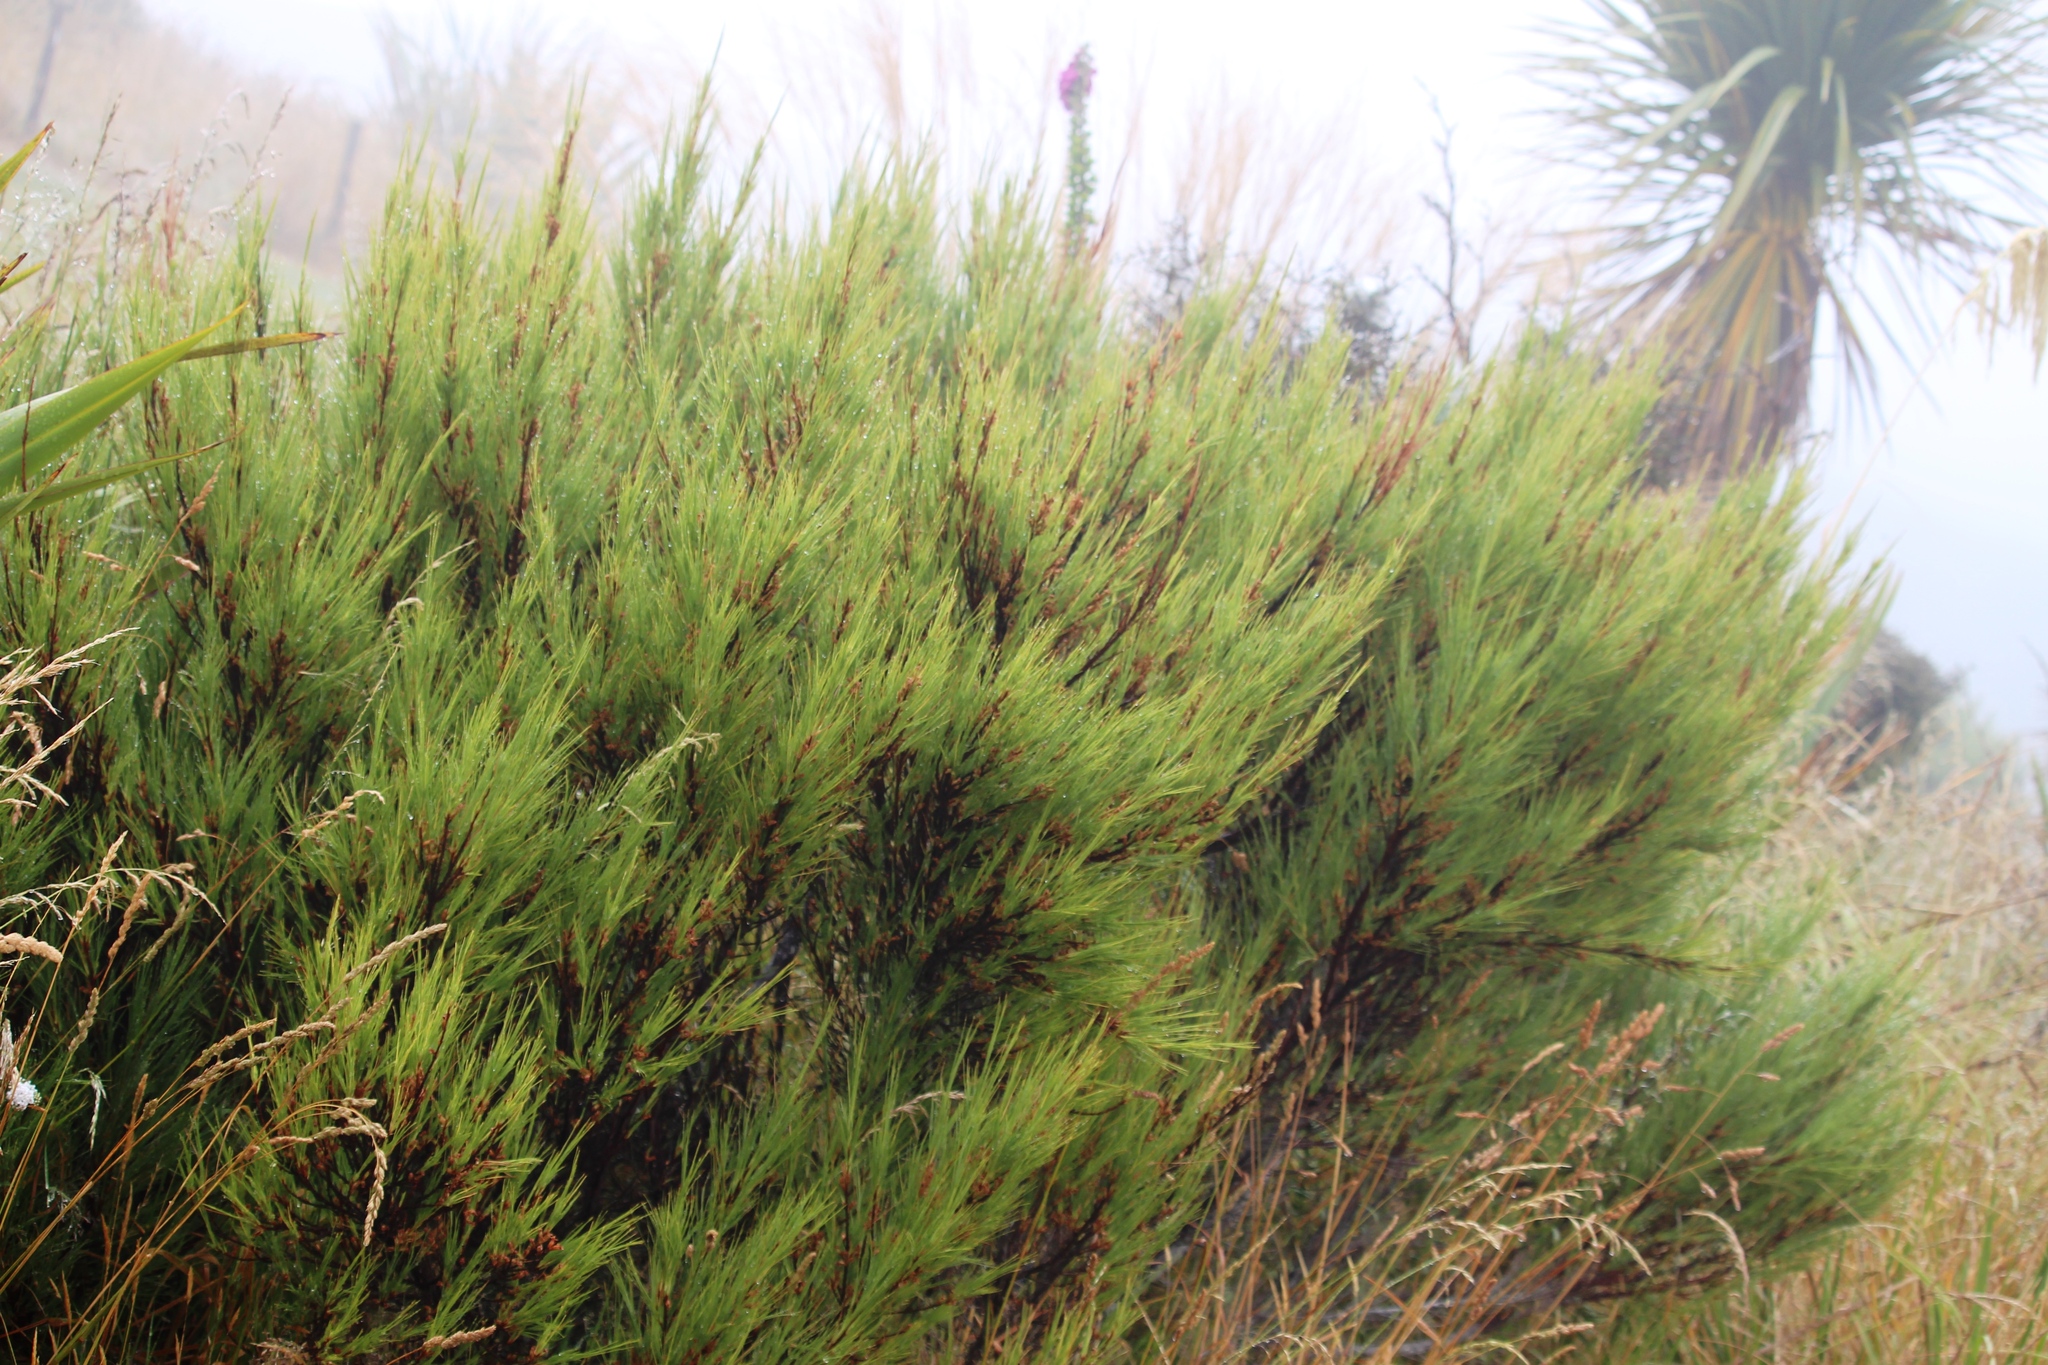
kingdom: Plantae
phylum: Tracheophyta
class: Magnoliopsida
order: Ericales
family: Ericaceae
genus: Dracophyllum
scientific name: Dracophyllum acerosum
